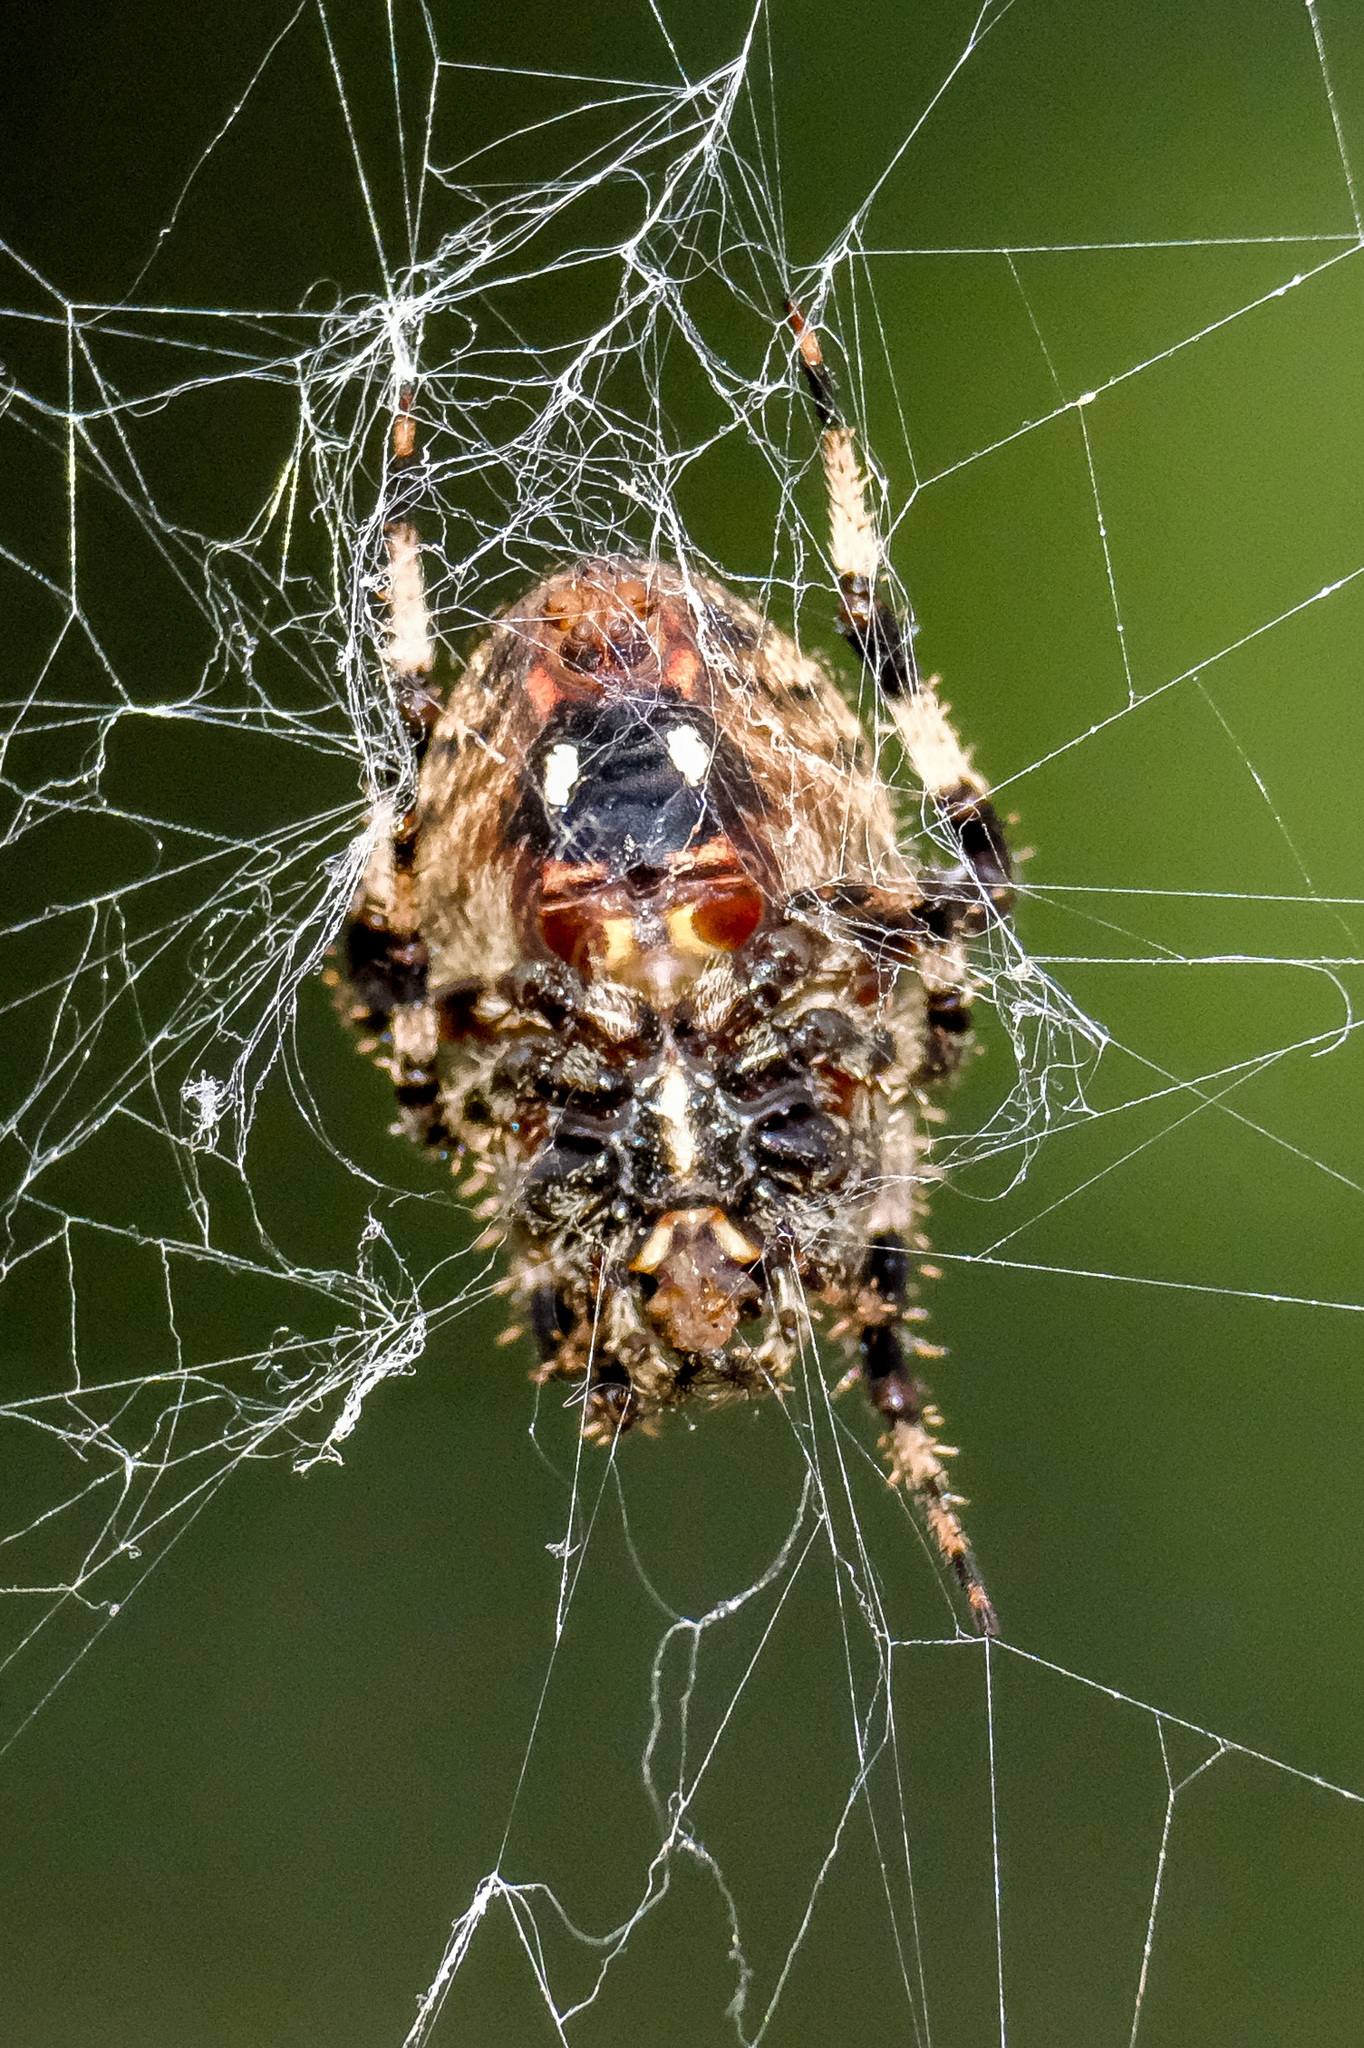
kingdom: Animalia
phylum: Arthropoda
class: Arachnida
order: Araneae
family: Araneidae
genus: Neoscona
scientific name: Neoscona crucifera
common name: Spotted orbweaver
